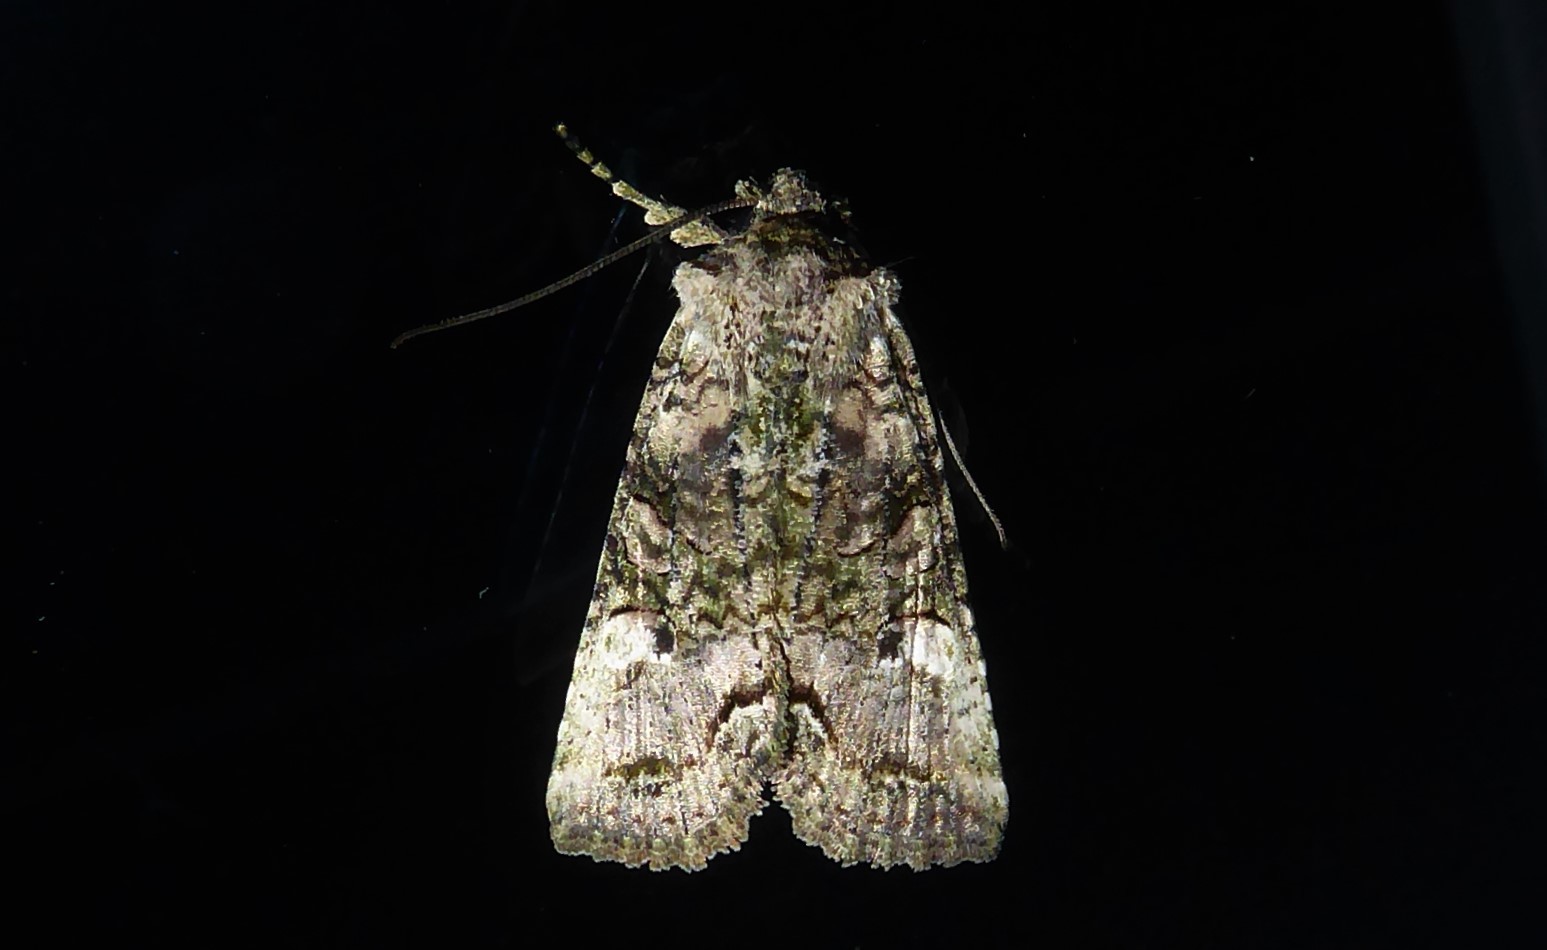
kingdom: Animalia
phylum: Arthropoda
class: Insecta
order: Lepidoptera
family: Noctuidae
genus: Meterana
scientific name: Meterana levis
